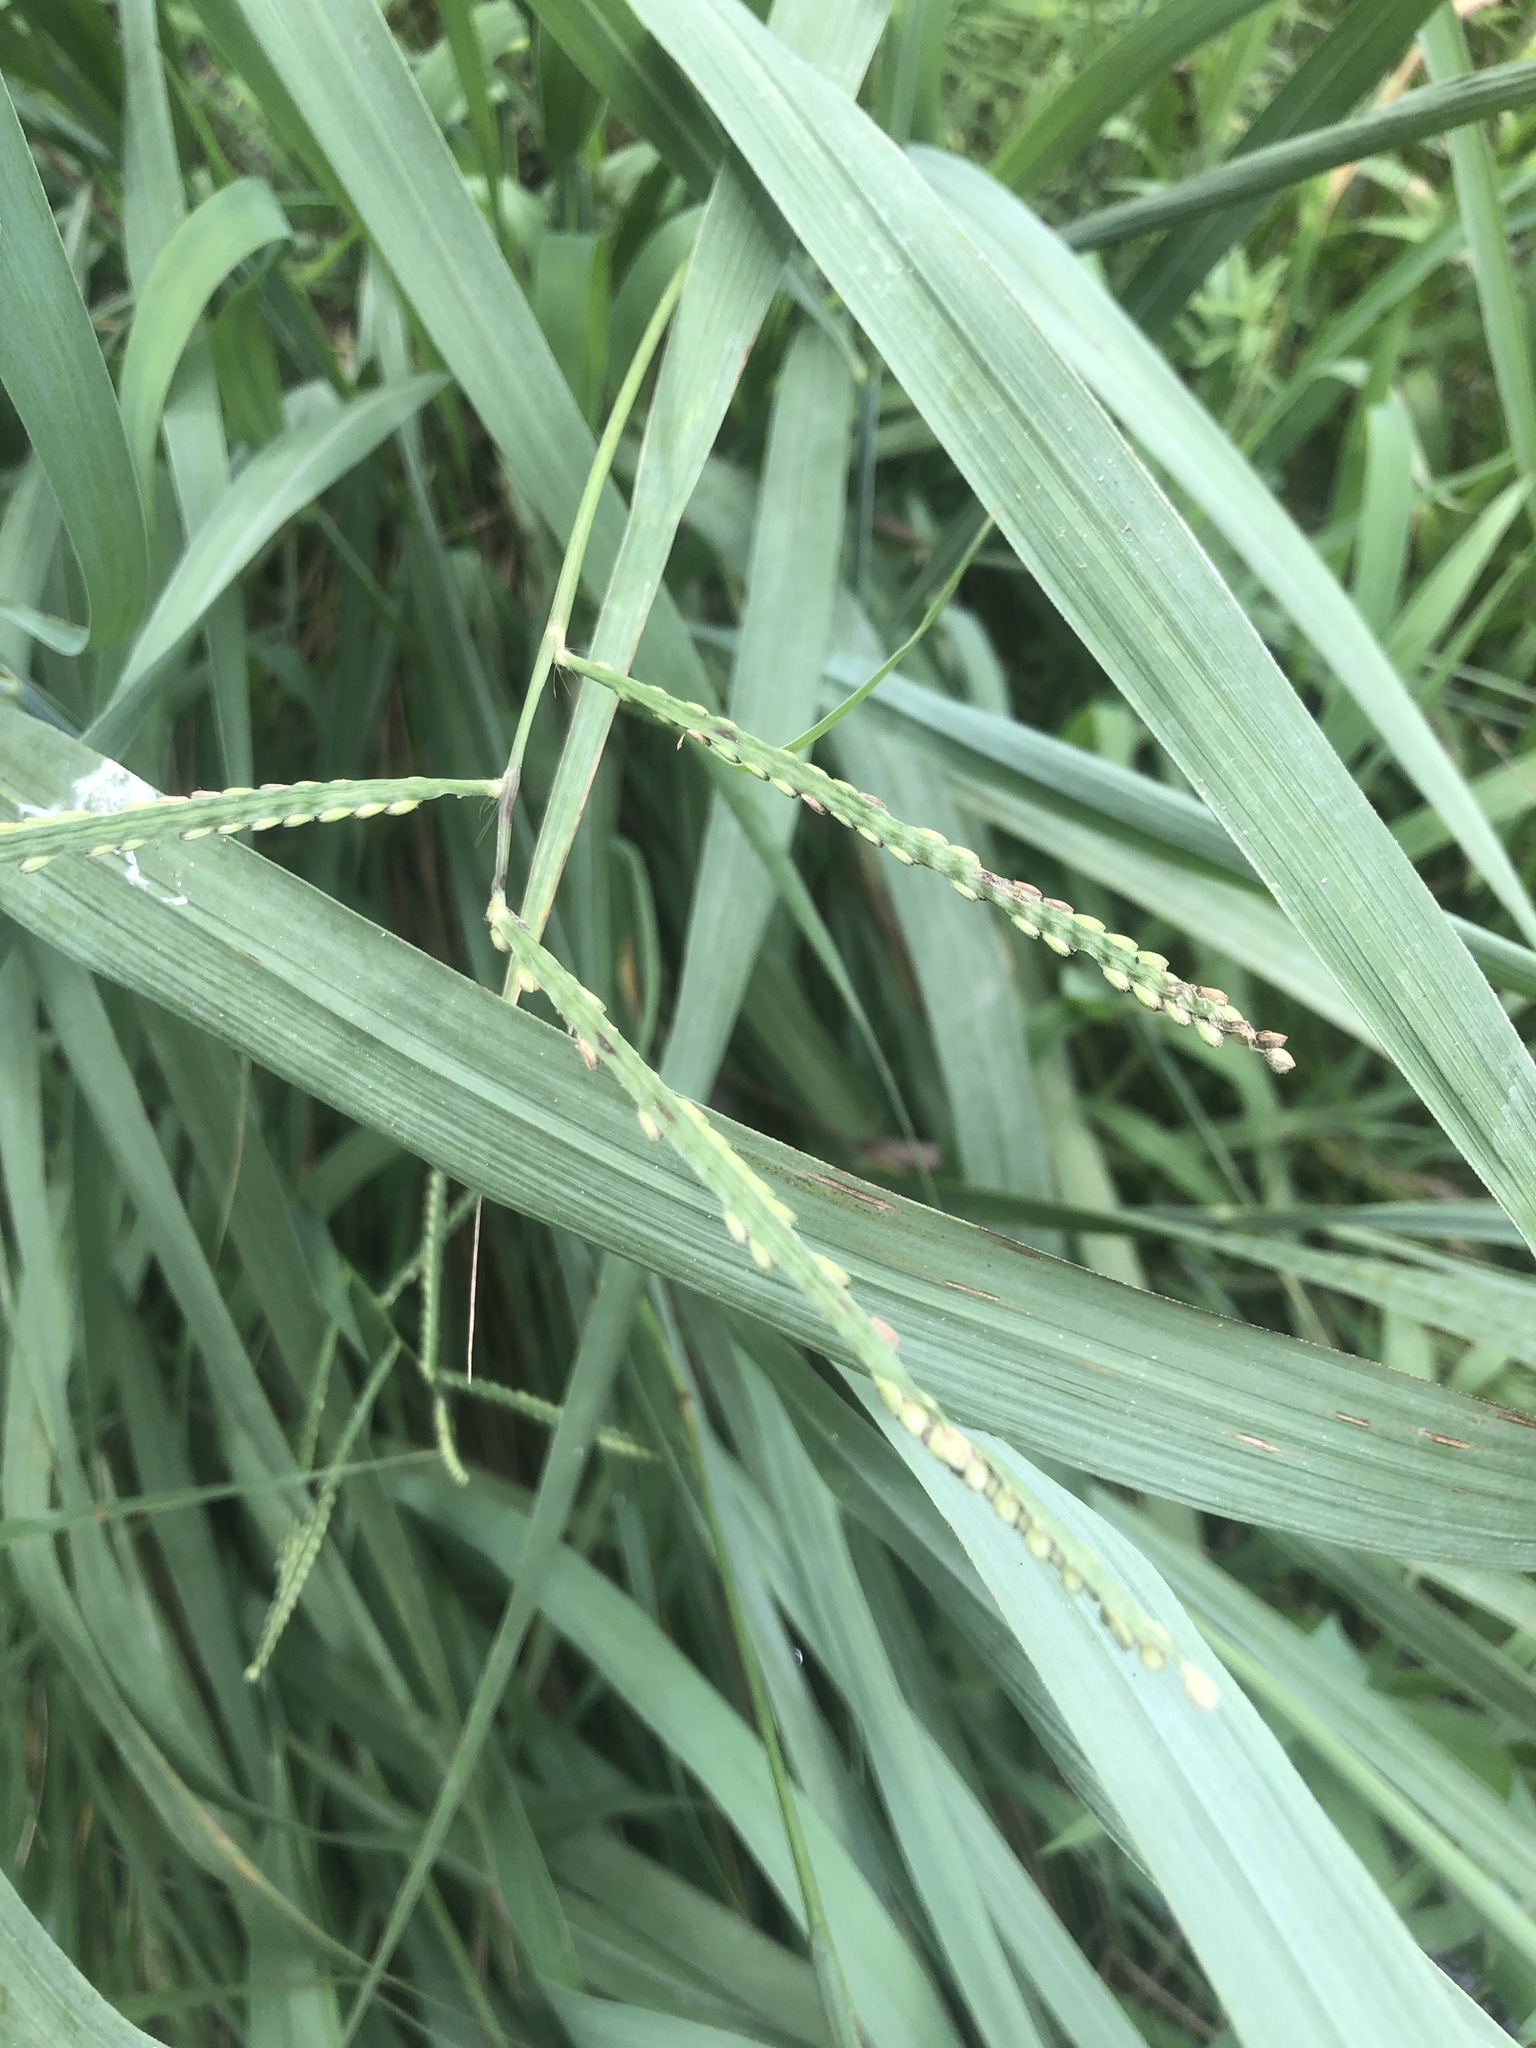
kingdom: Plantae
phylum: Tracheophyta
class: Liliopsida
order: Poales
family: Poaceae
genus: Paspalum
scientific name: Paspalum pubiflorum
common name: Hairy-seed paspalum
